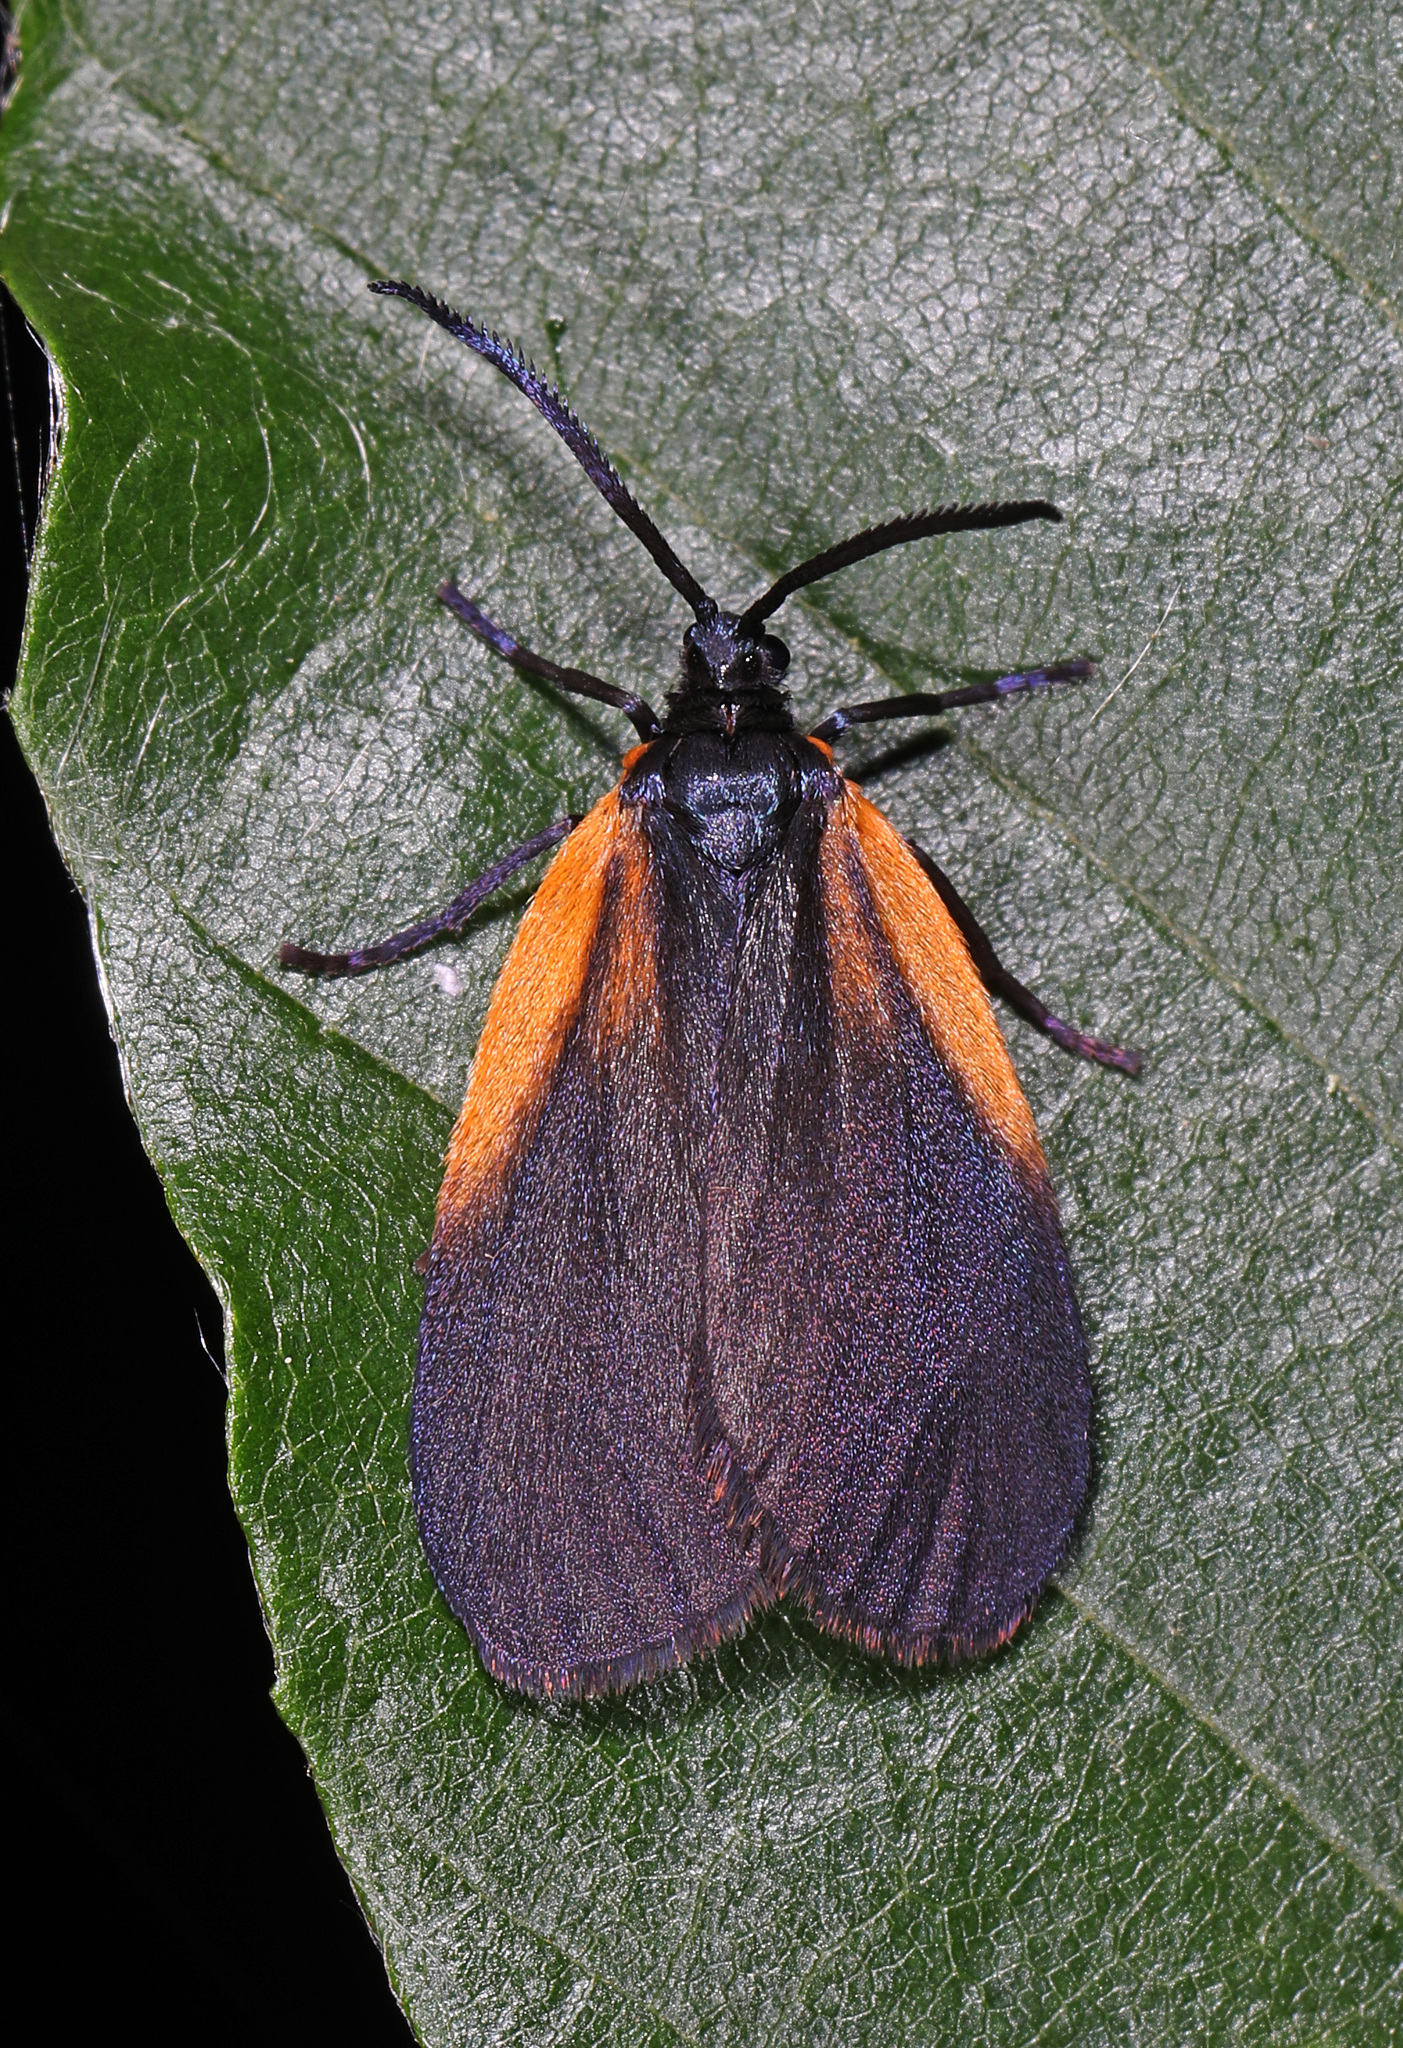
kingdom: Animalia
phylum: Arthropoda
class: Insecta
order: Lepidoptera
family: Zygaenidae
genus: Malthaca
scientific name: Malthaca dimidiata
